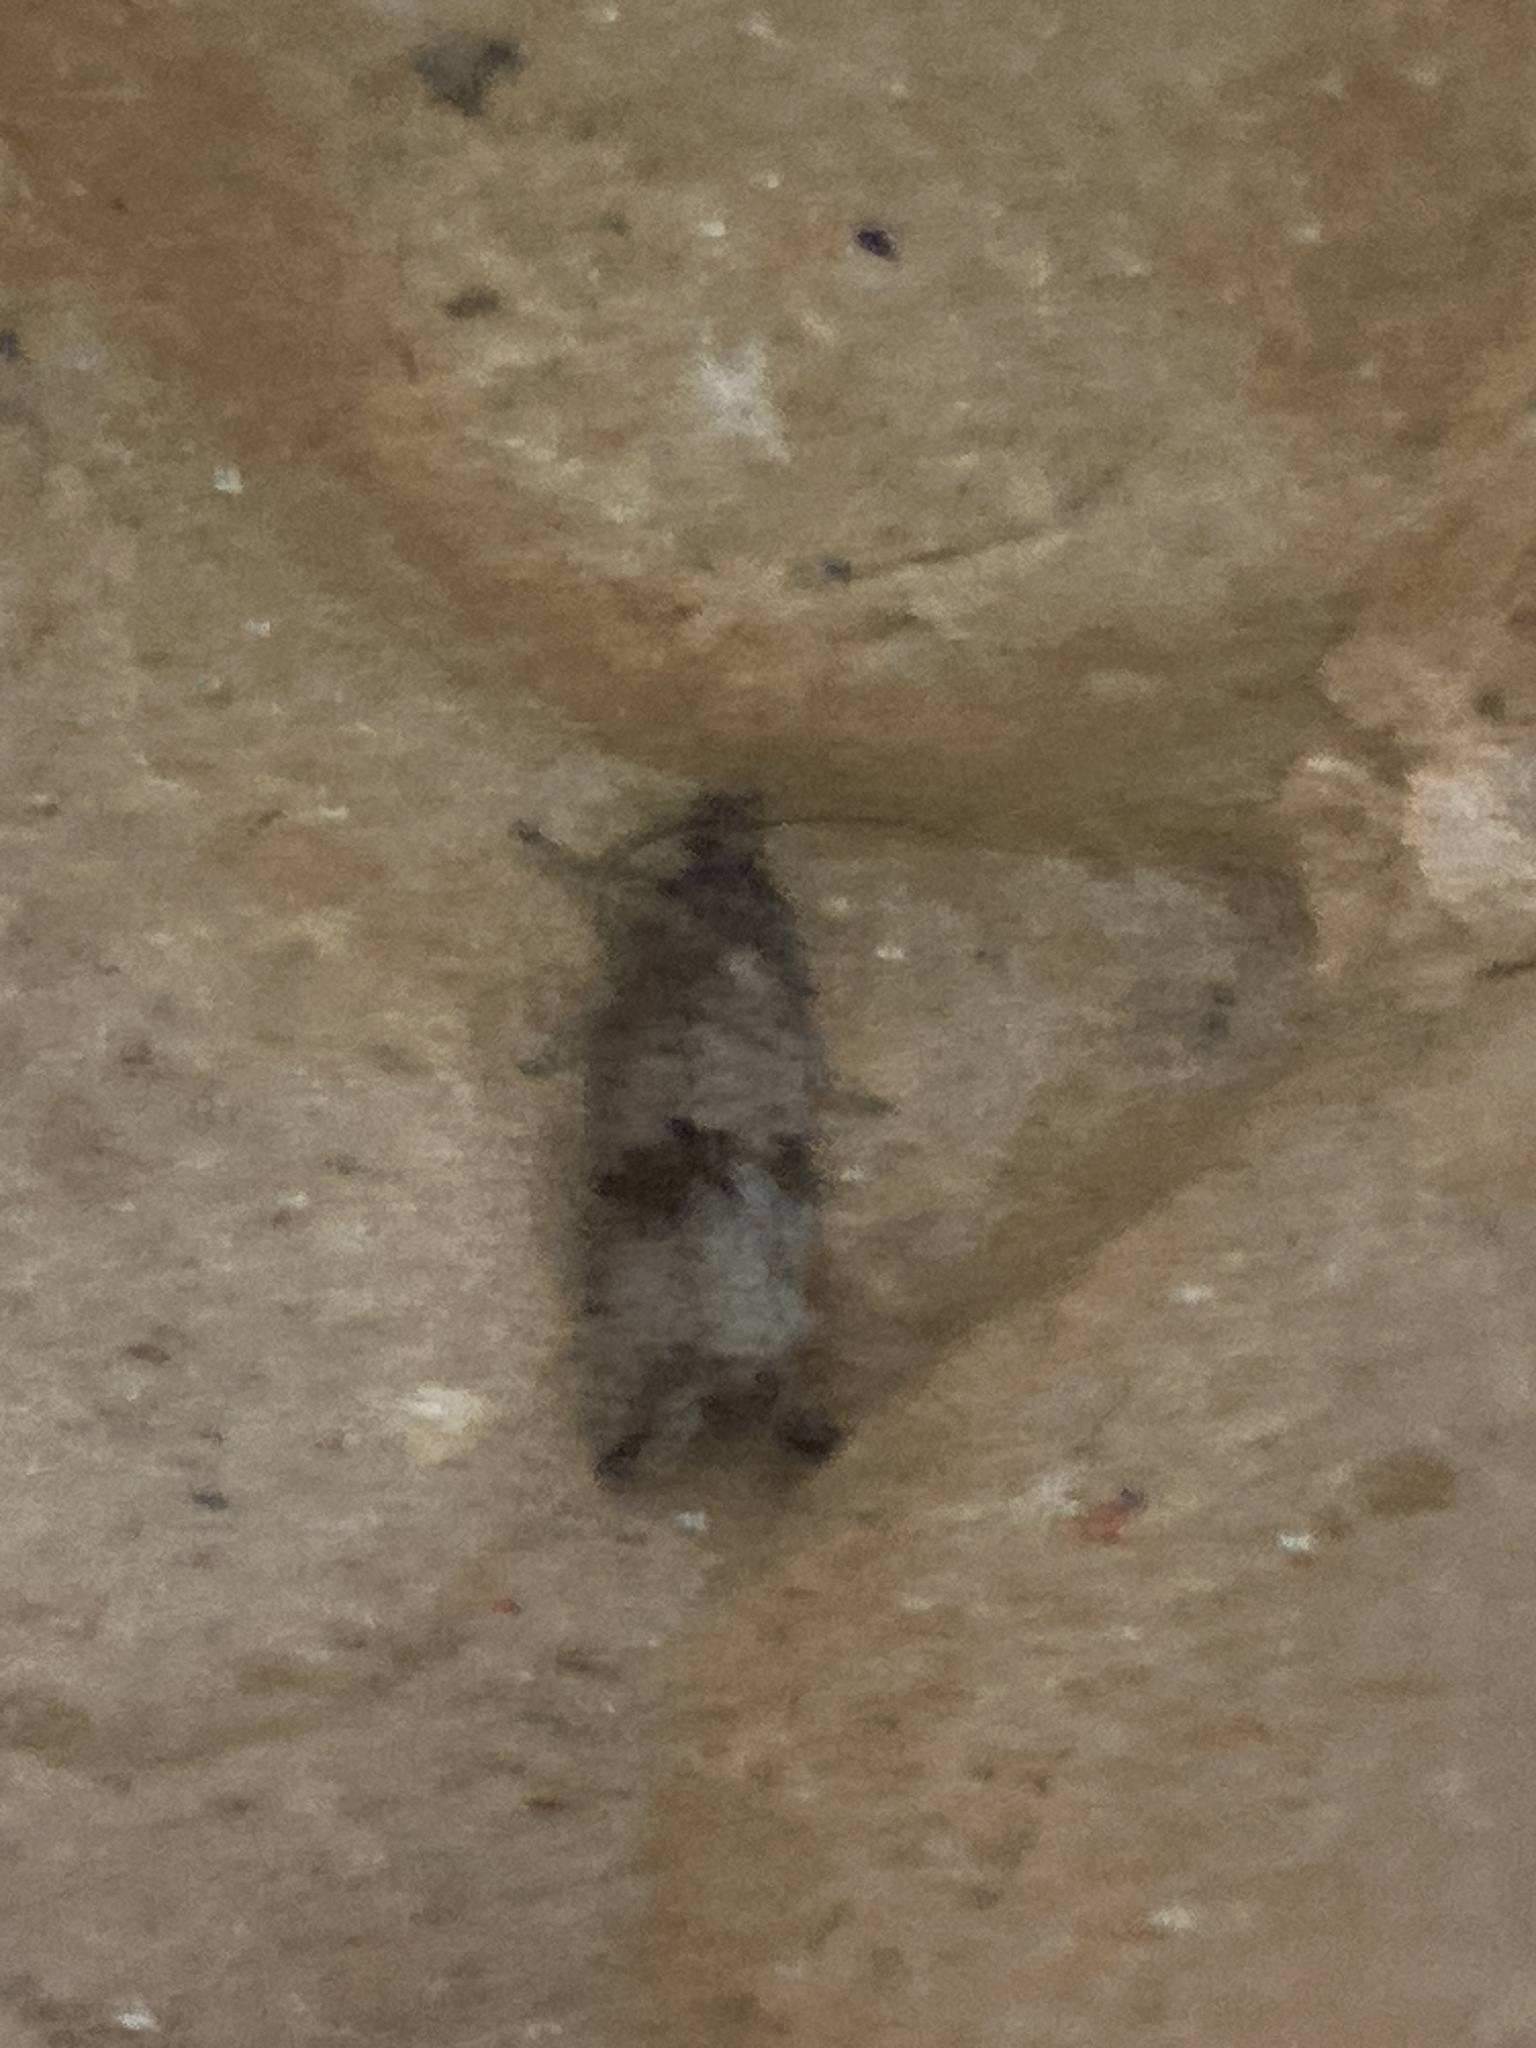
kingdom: Animalia
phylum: Arthropoda
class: Insecta
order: Lepidoptera
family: Tortricidae
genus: Celypha
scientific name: Celypha striana
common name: Barred marble
